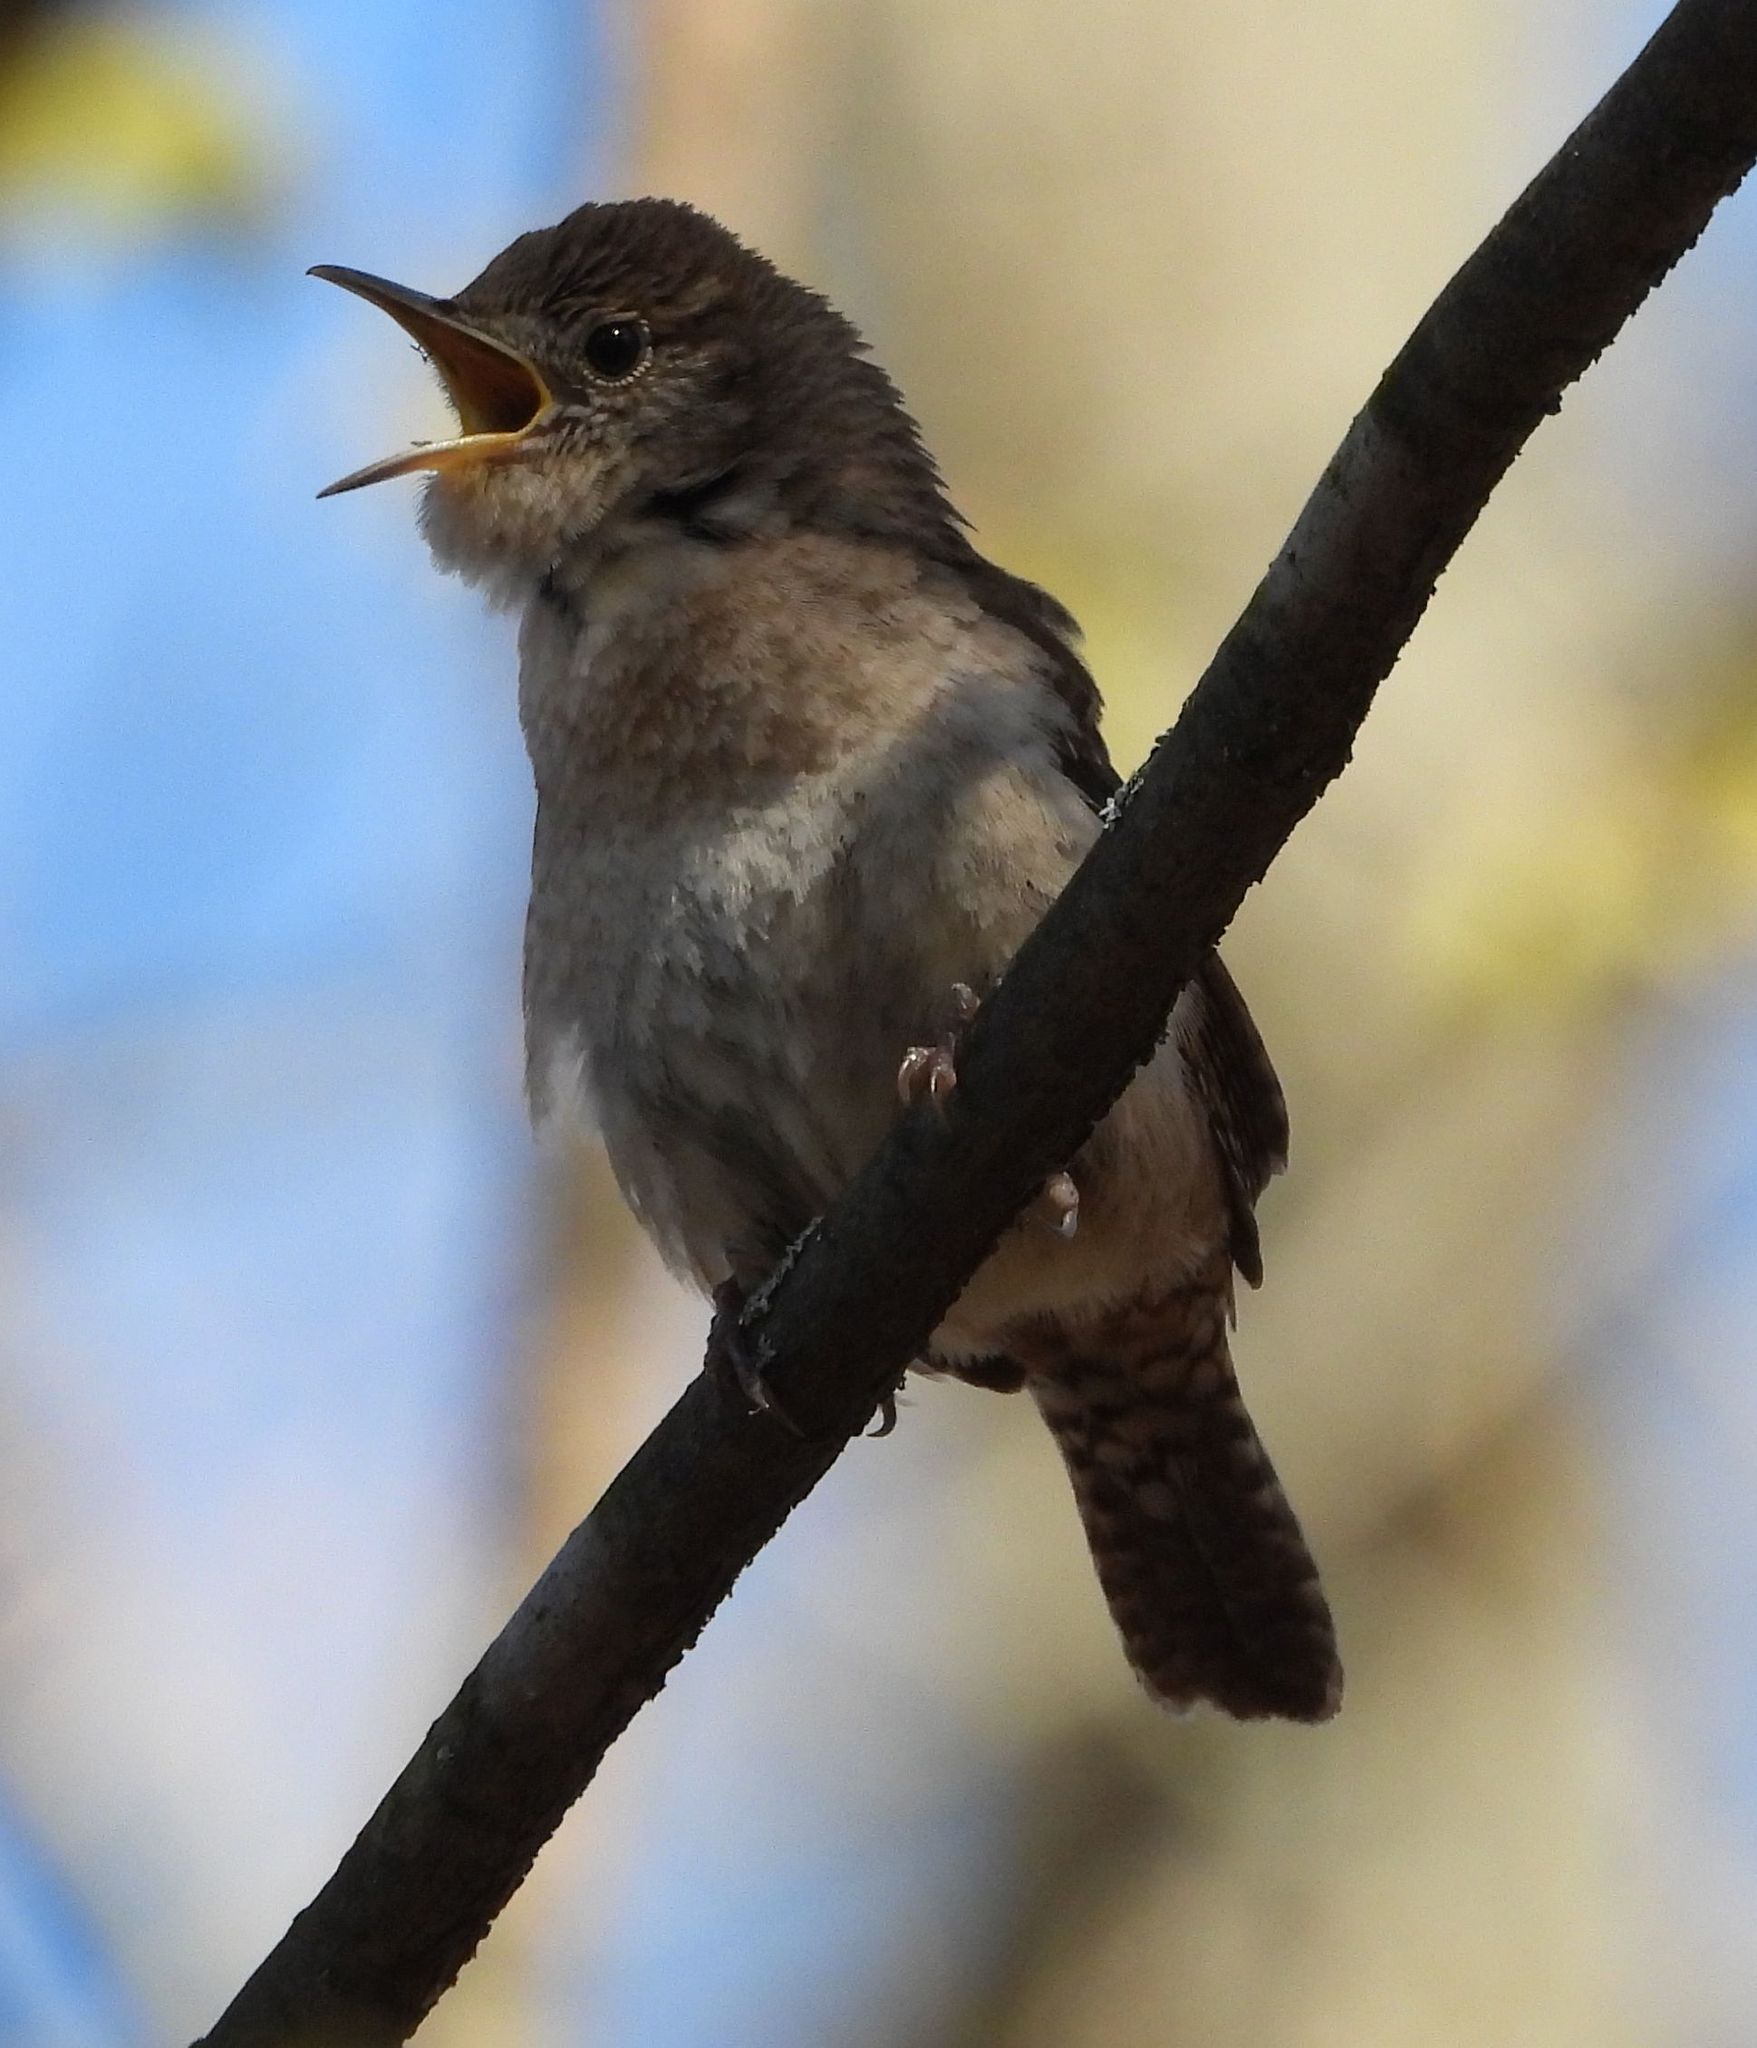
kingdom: Animalia
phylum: Chordata
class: Aves
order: Passeriformes
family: Troglodytidae
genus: Troglodytes
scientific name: Troglodytes aedon
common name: House wren
